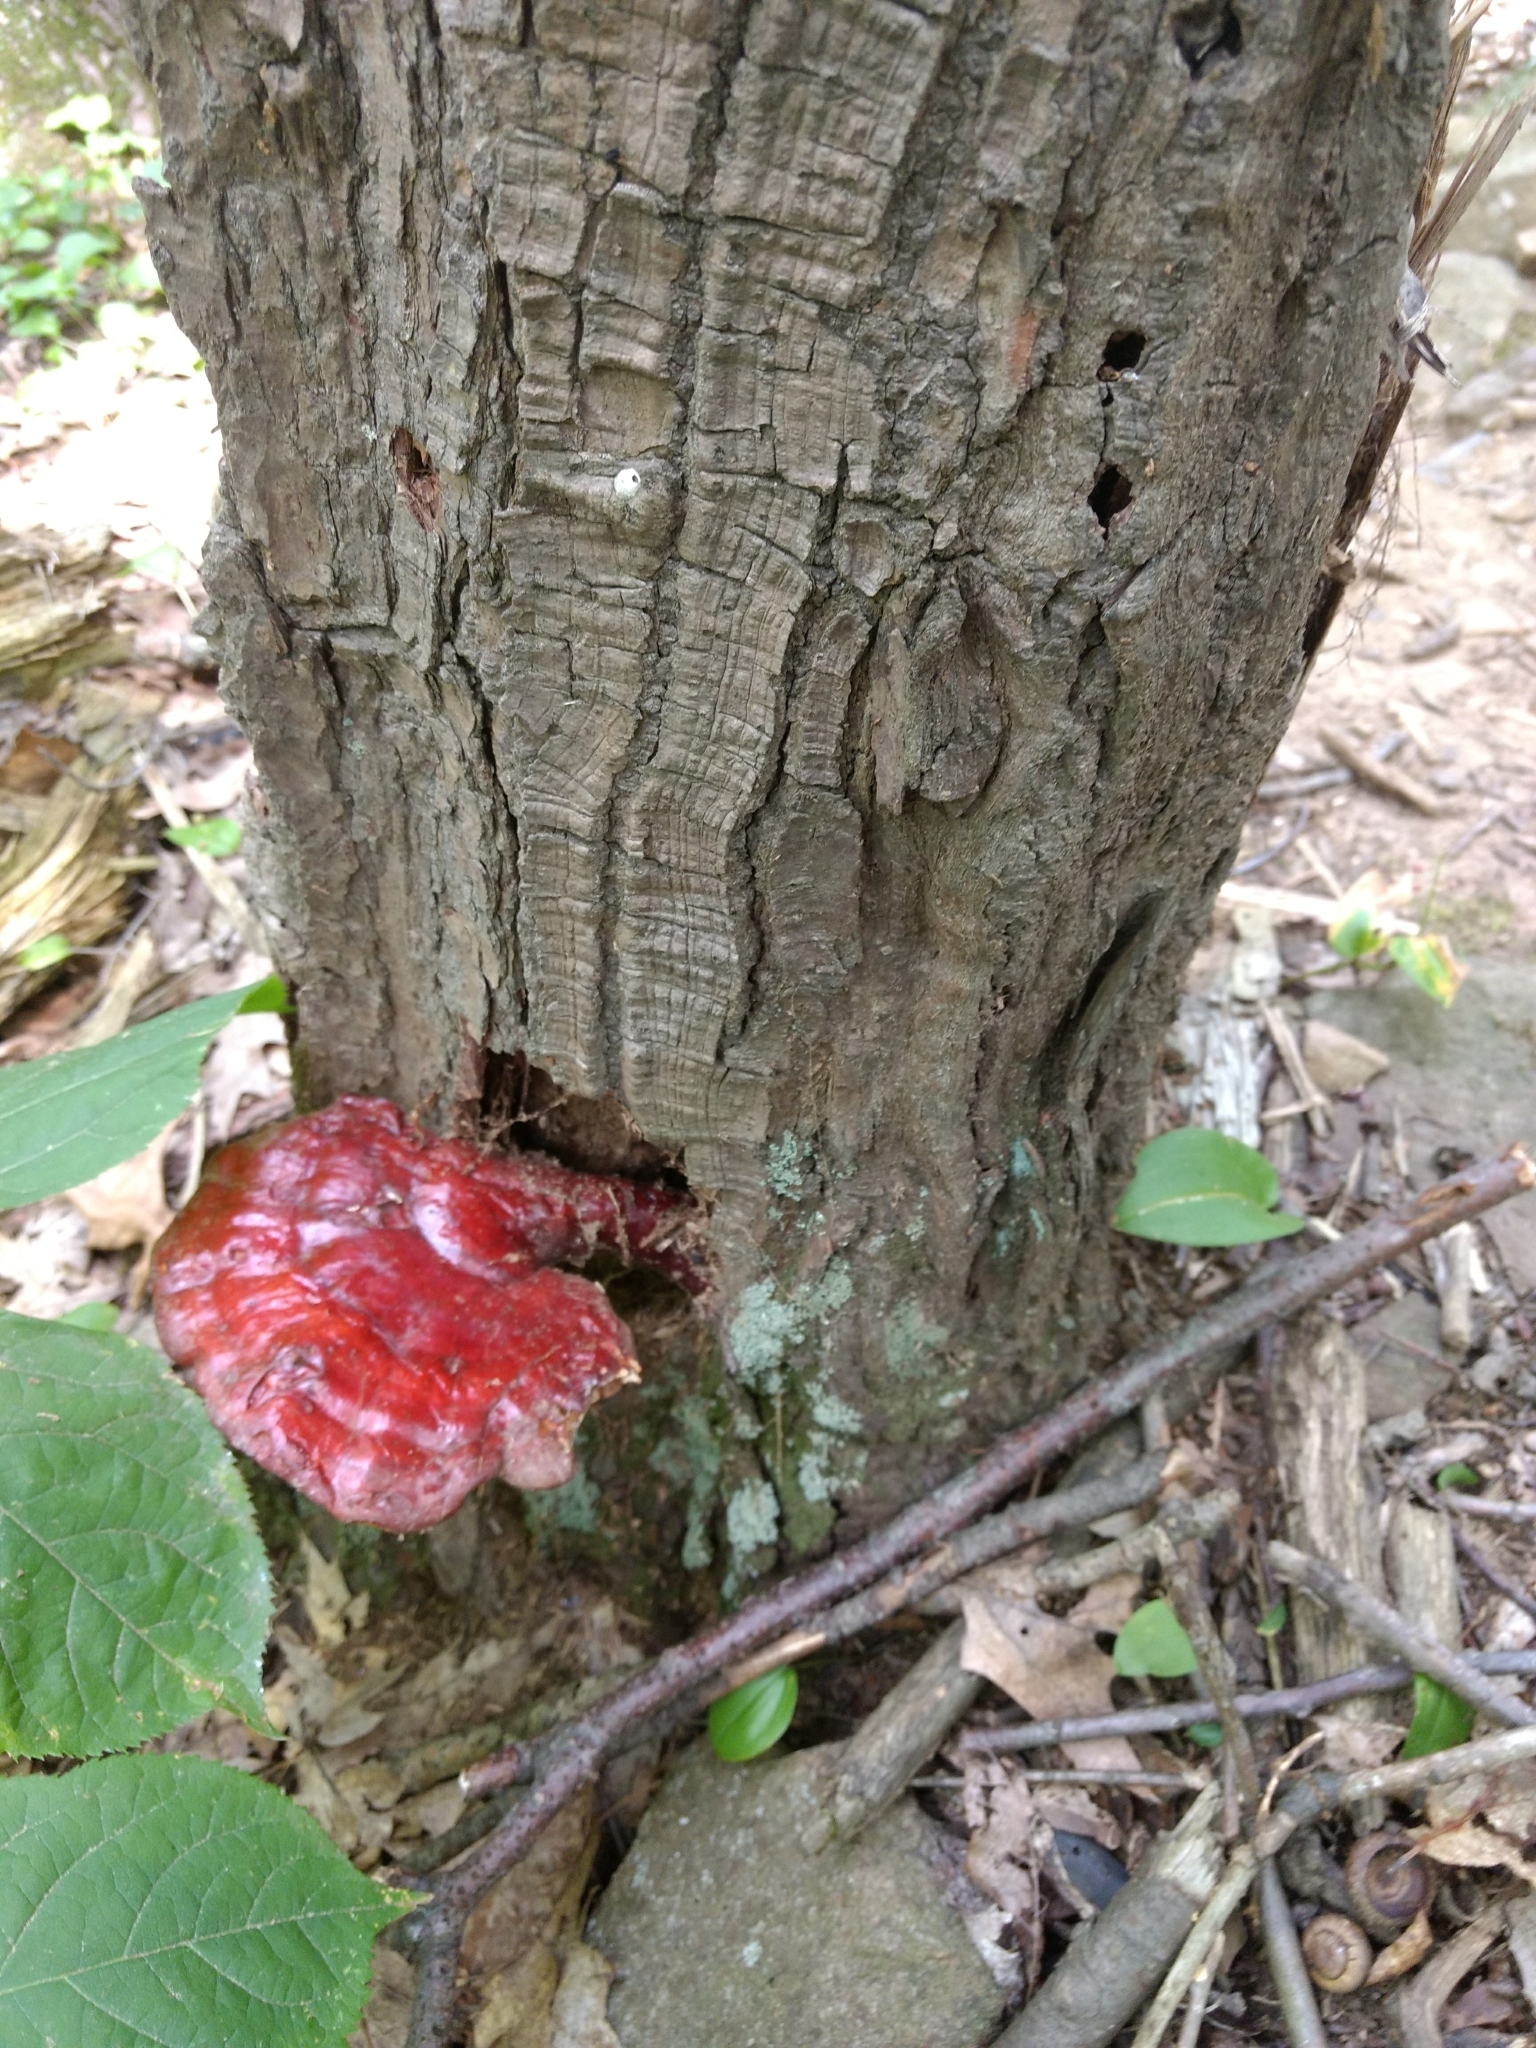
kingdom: Fungi
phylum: Basidiomycota
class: Agaricomycetes
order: Polyporales
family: Polyporaceae
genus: Ganoderma
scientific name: Ganoderma tsugae
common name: Hemlock varnish shelf
